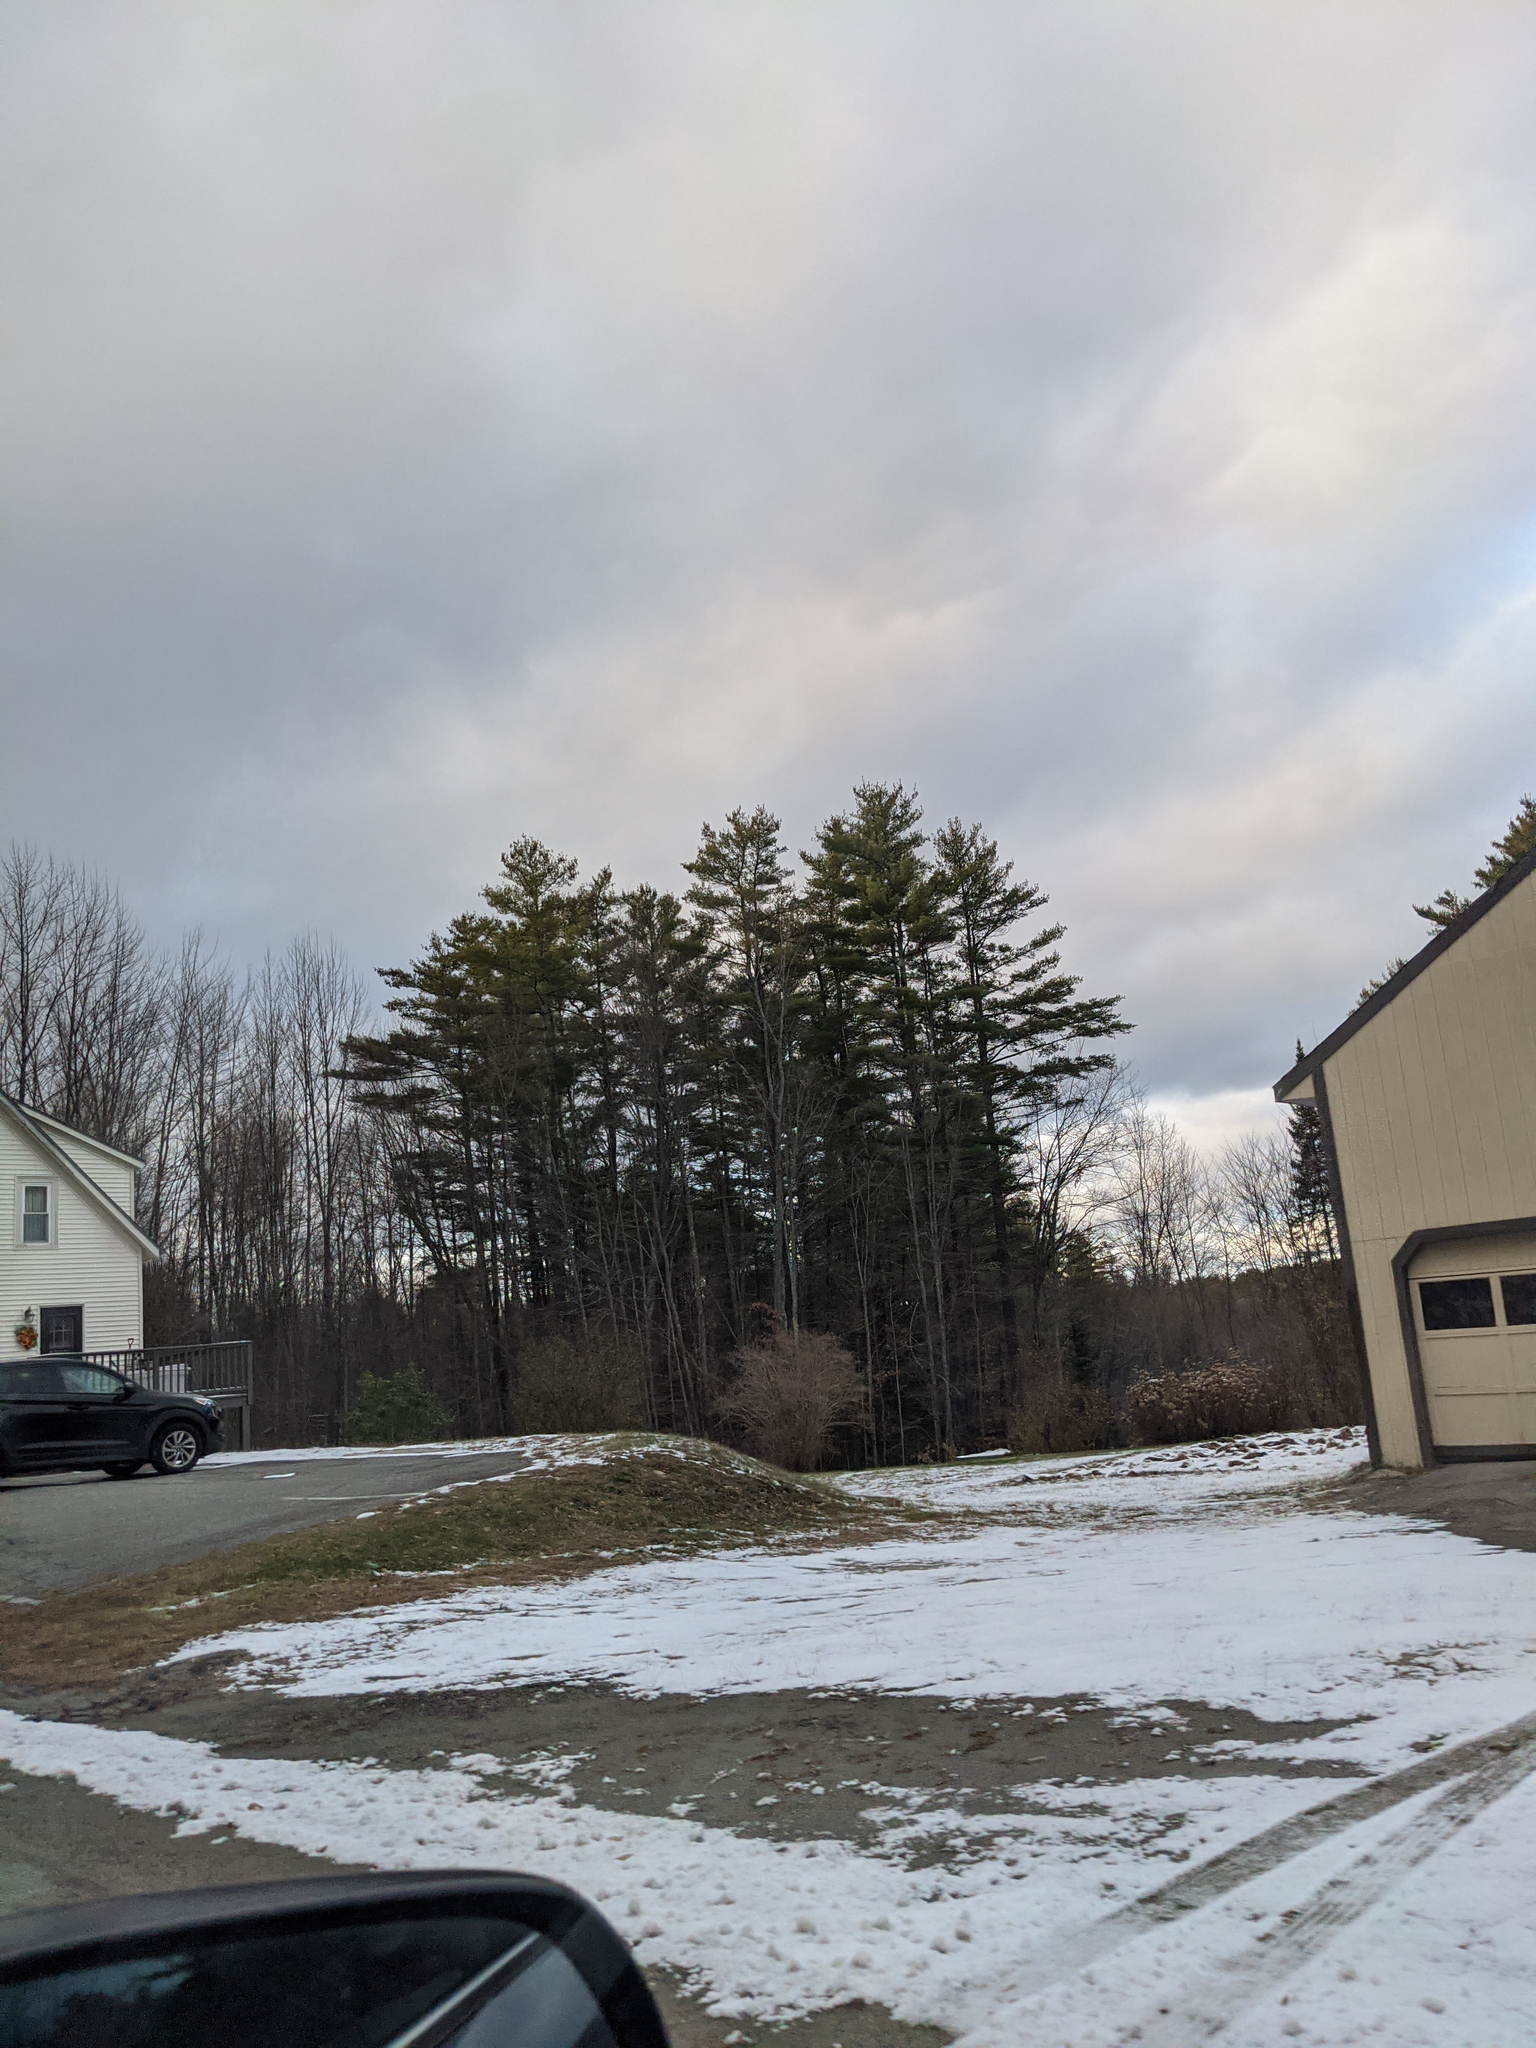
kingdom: Plantae
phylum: Tracheophyta
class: Pinopsida
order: Pinales
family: Pinaceae
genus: Pinus
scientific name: Pinus strobus
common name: Weymouth pine
